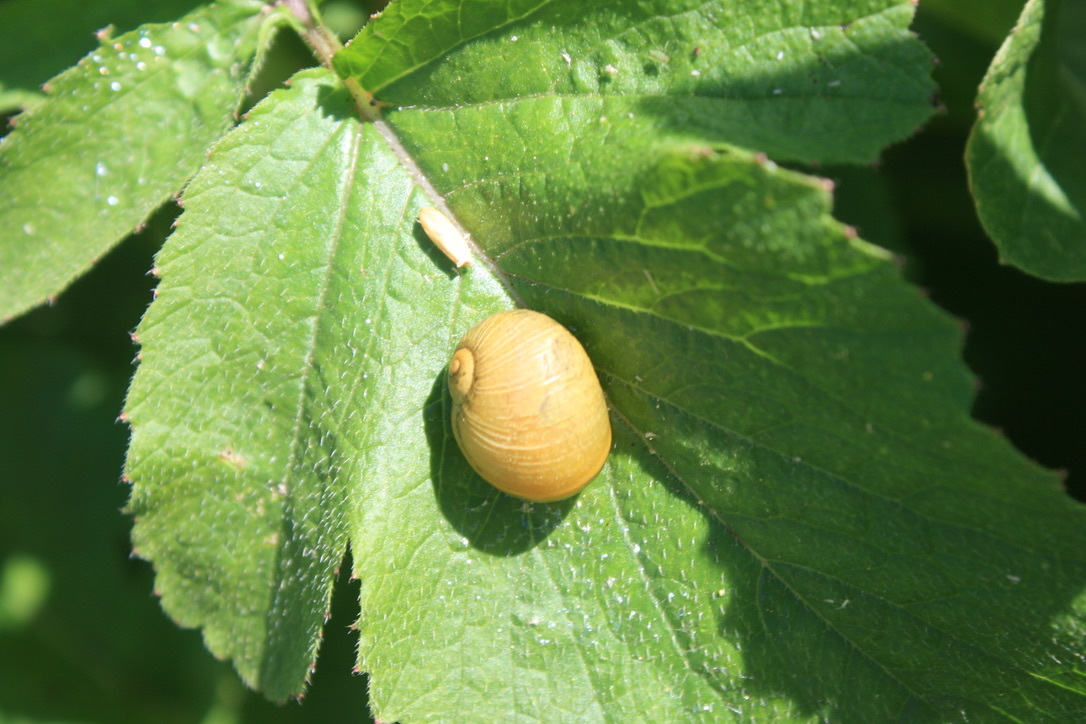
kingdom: Animalia
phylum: Mollusca
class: Gastropoda
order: Stylommatophora
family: Helicidae
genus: Cantareus
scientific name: Cantareus apertus
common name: Green gardensnail
